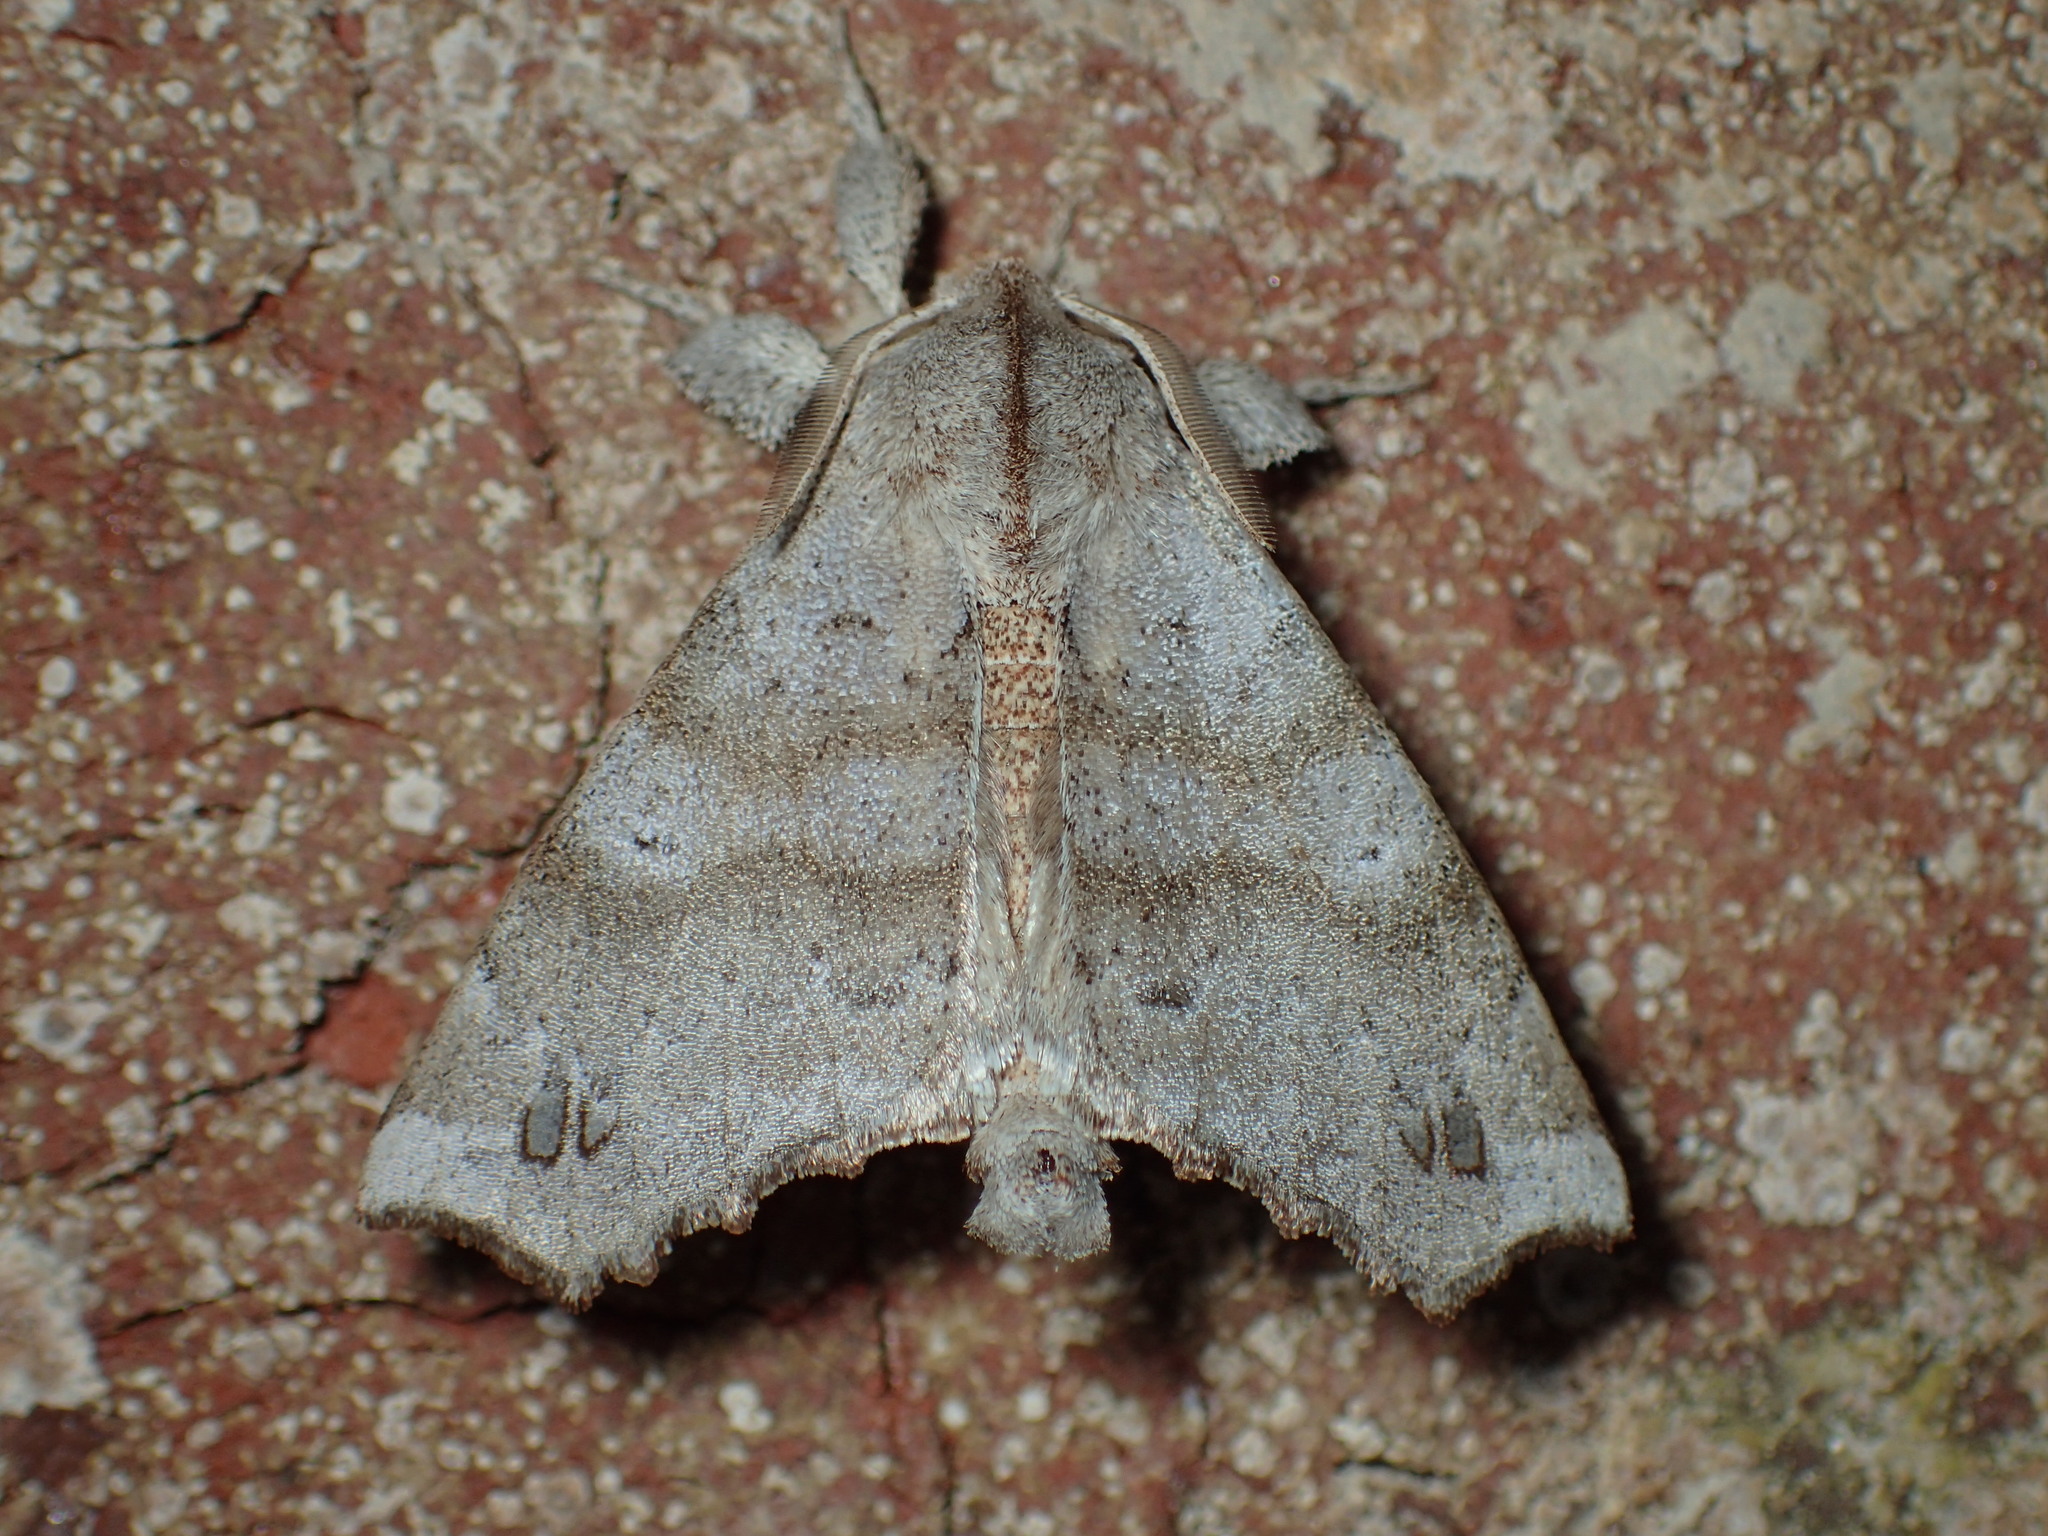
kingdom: Animalia
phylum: Arthropoda
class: Insecta
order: Lepidoptera
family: Apatelodidae
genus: Olceclostera
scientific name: Olceclostera angelica
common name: Angel moth
